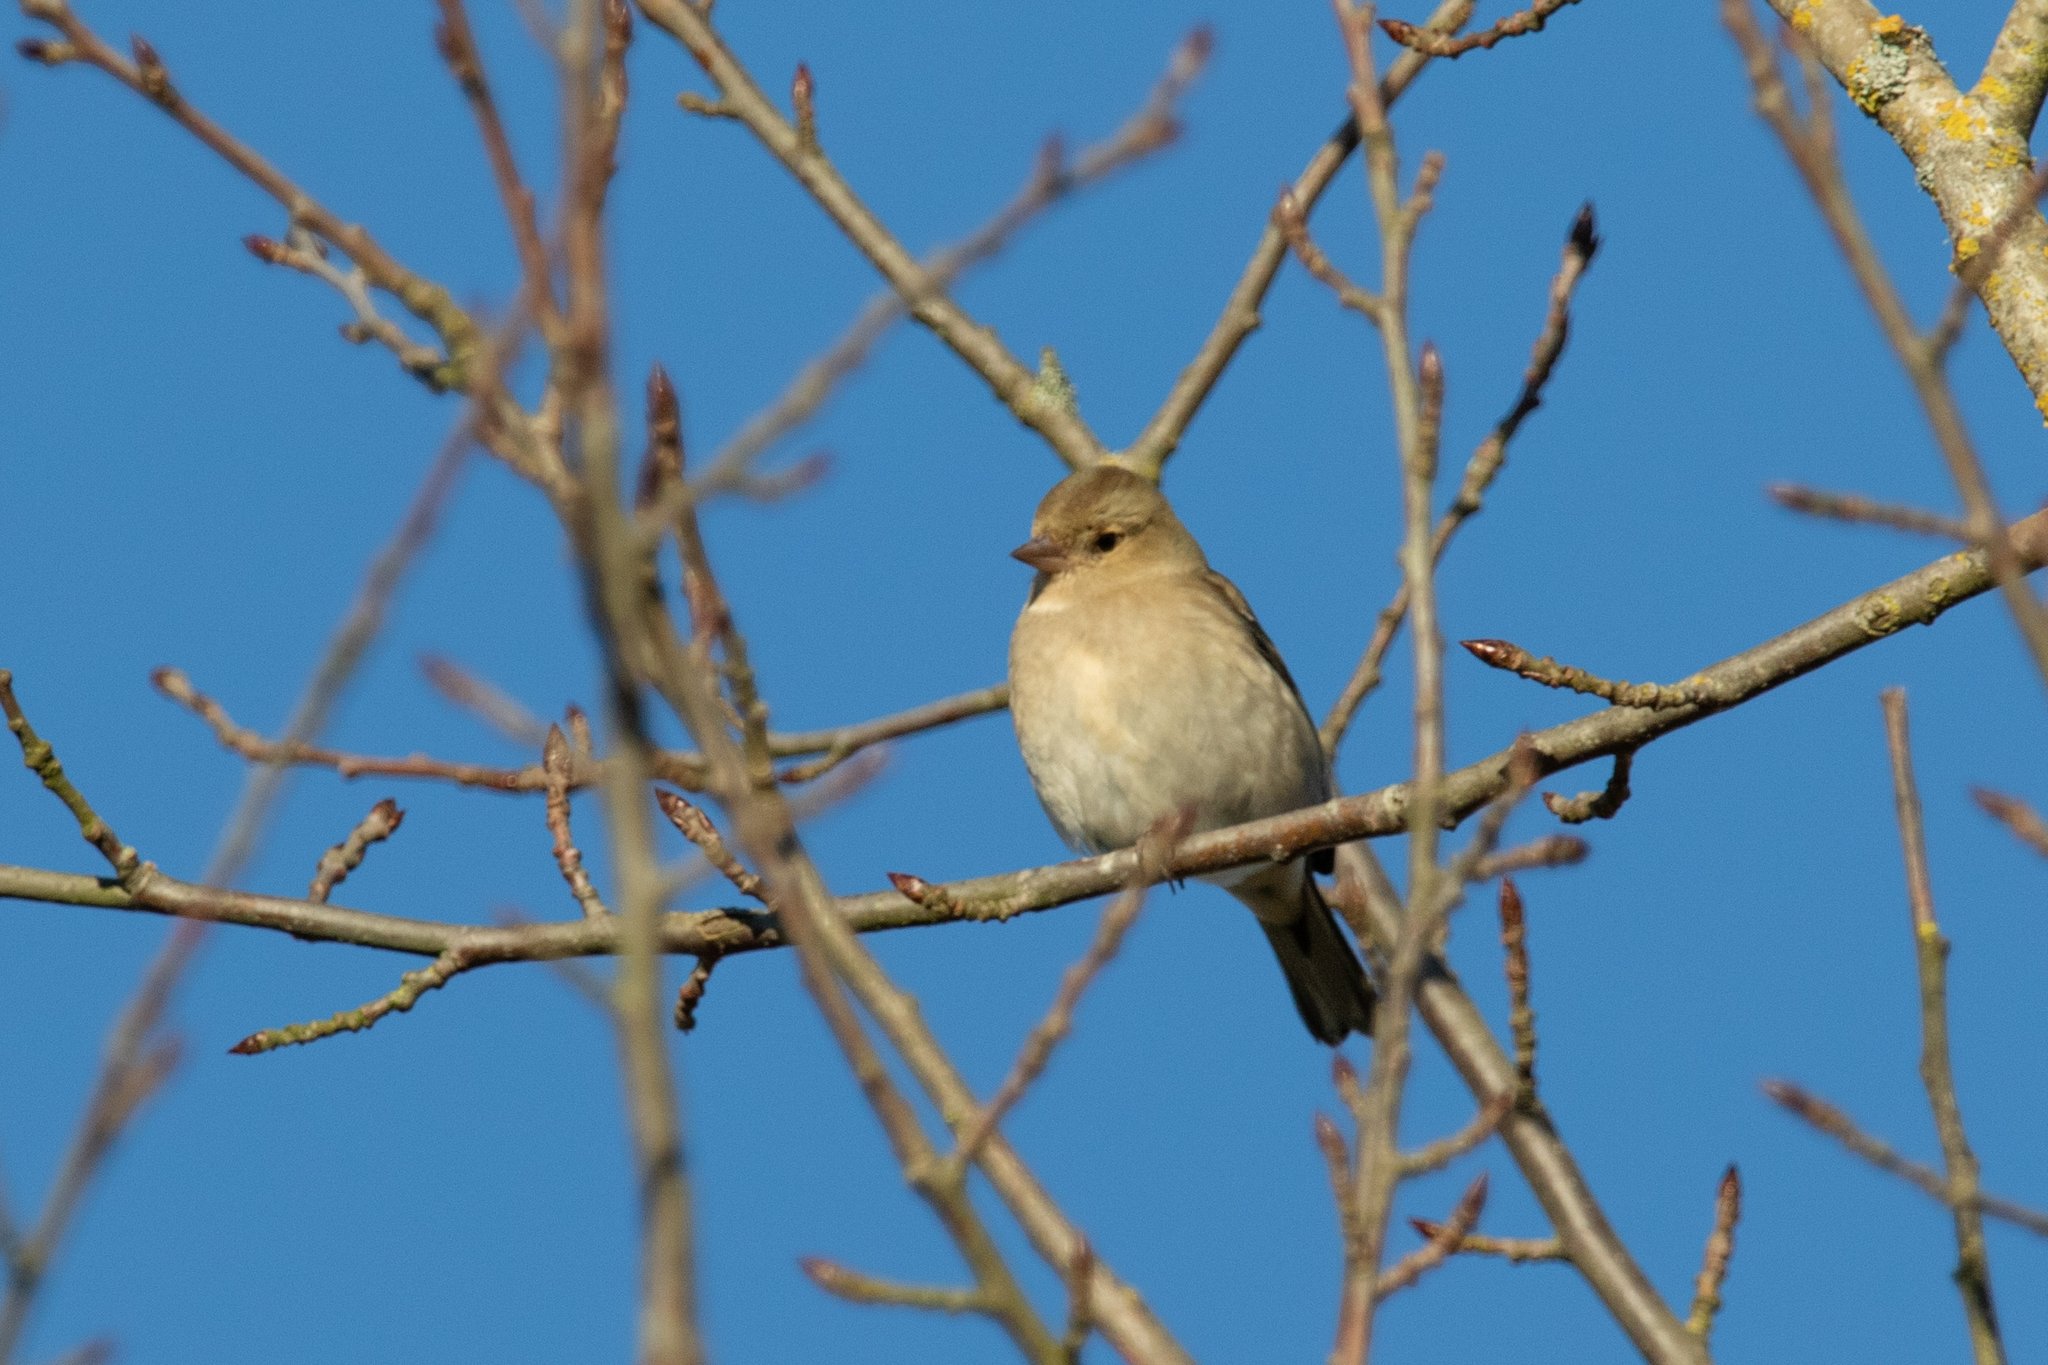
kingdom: Animalia
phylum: Chordata
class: Aves
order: Passeriformes
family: Fringillidae
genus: Fringilla
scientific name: Fringilla coelebs
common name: Common chaffinch
